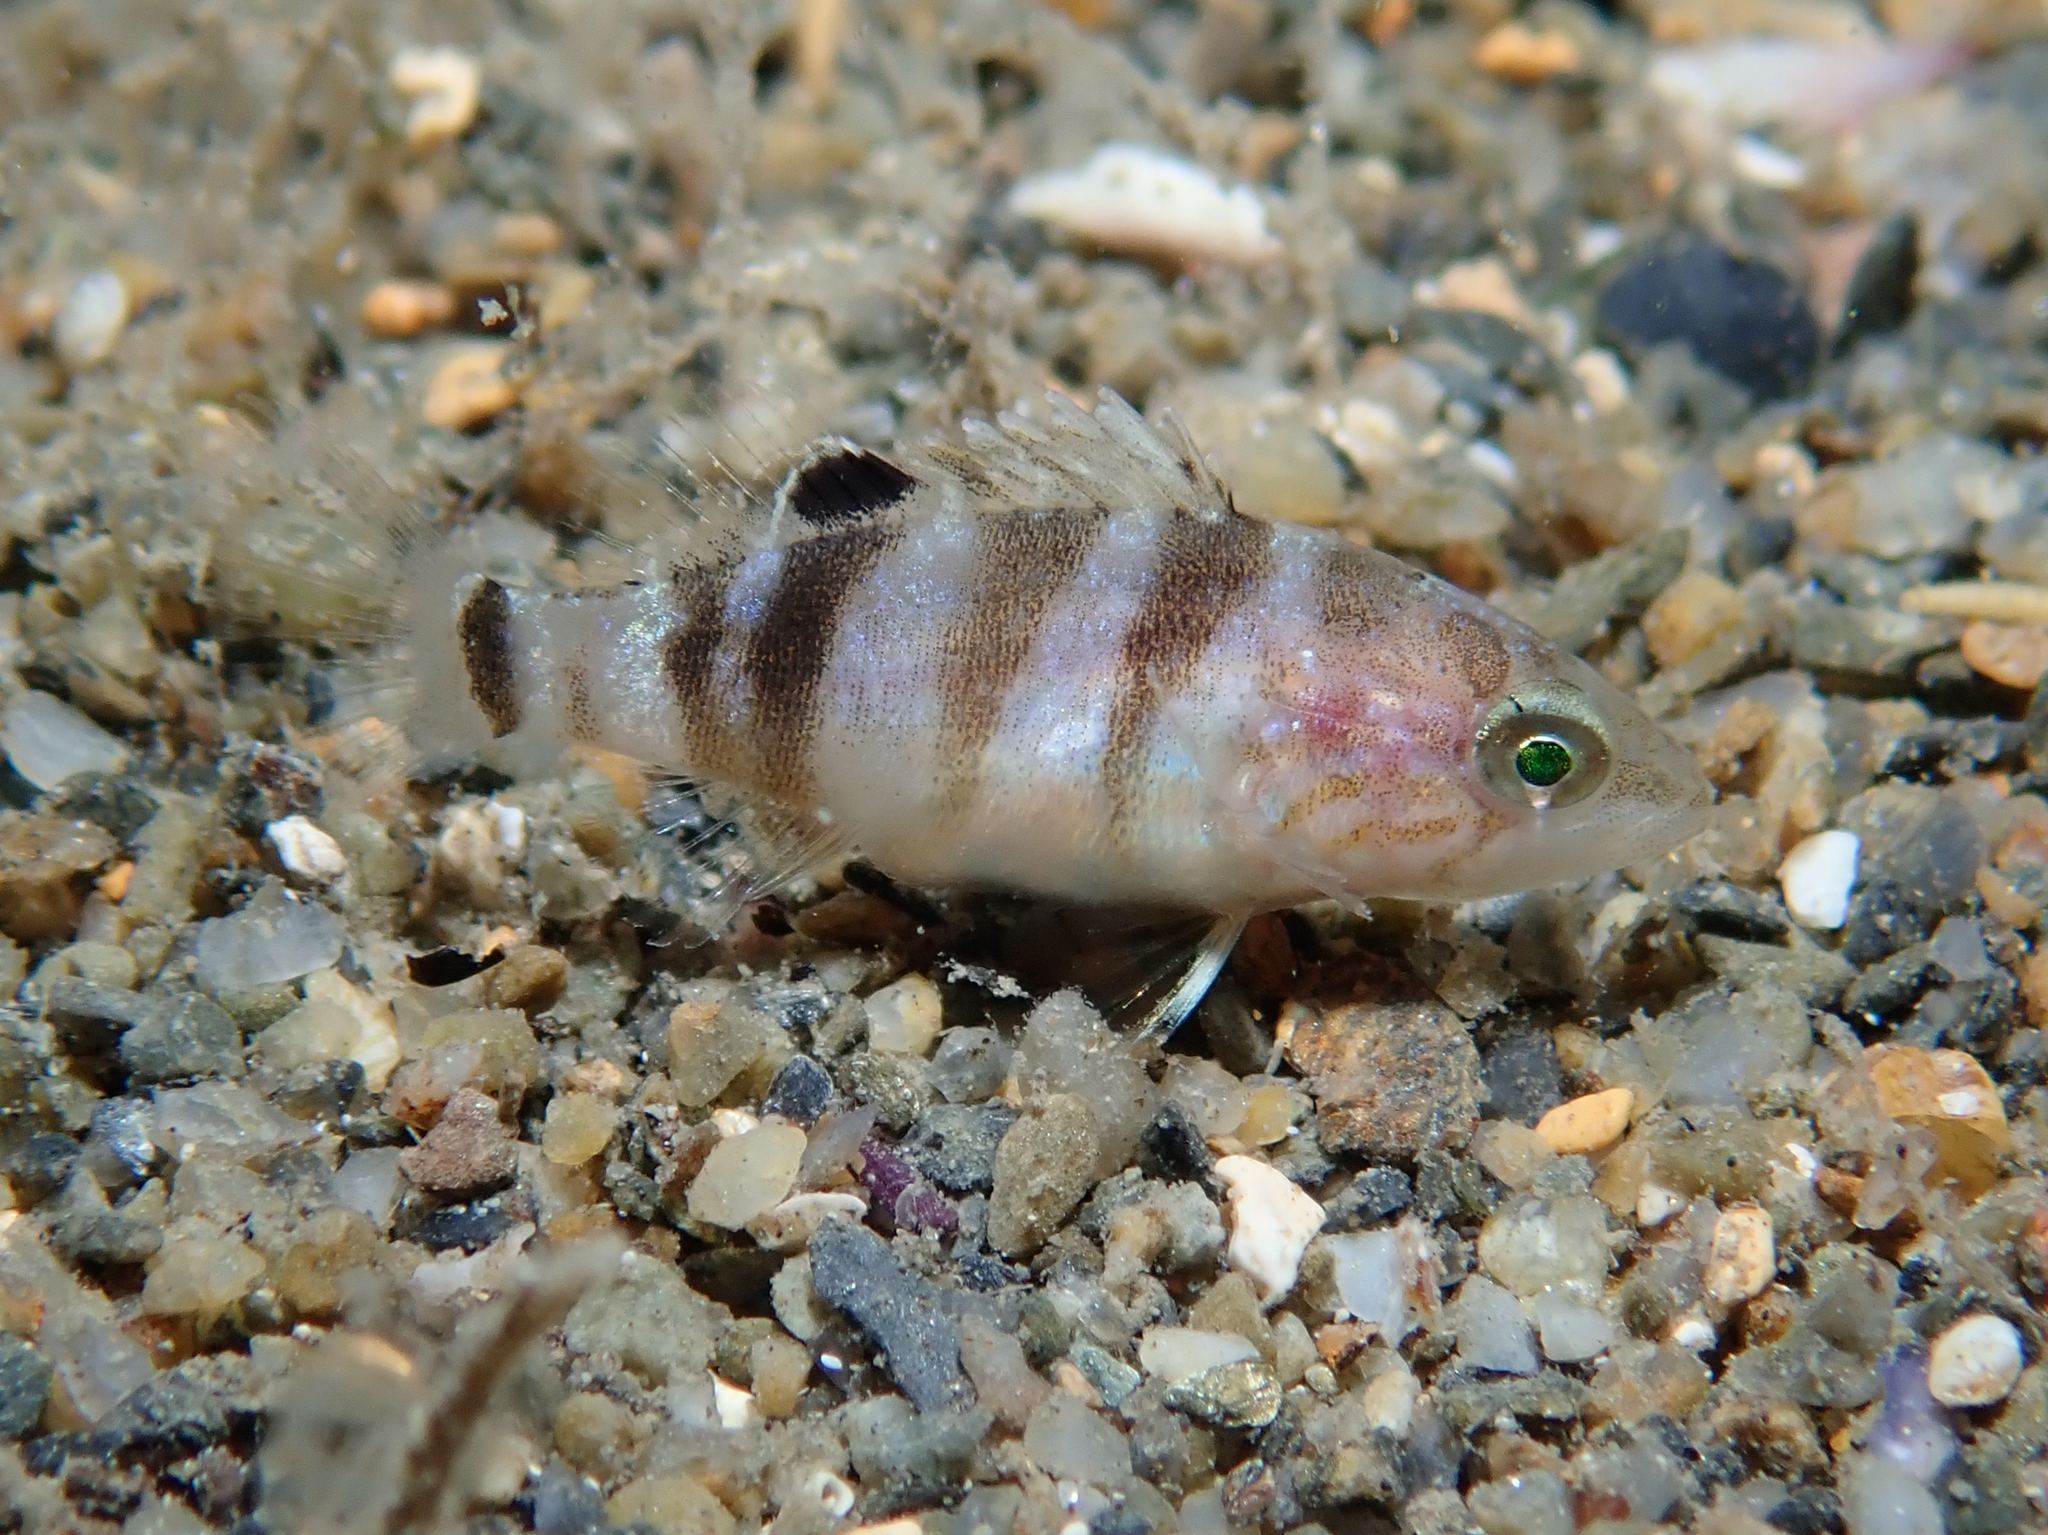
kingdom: Animalia
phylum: Chordata
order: Perciformes
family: Serranidae
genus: Serranus
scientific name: Serranus hepatus
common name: Brown comber
